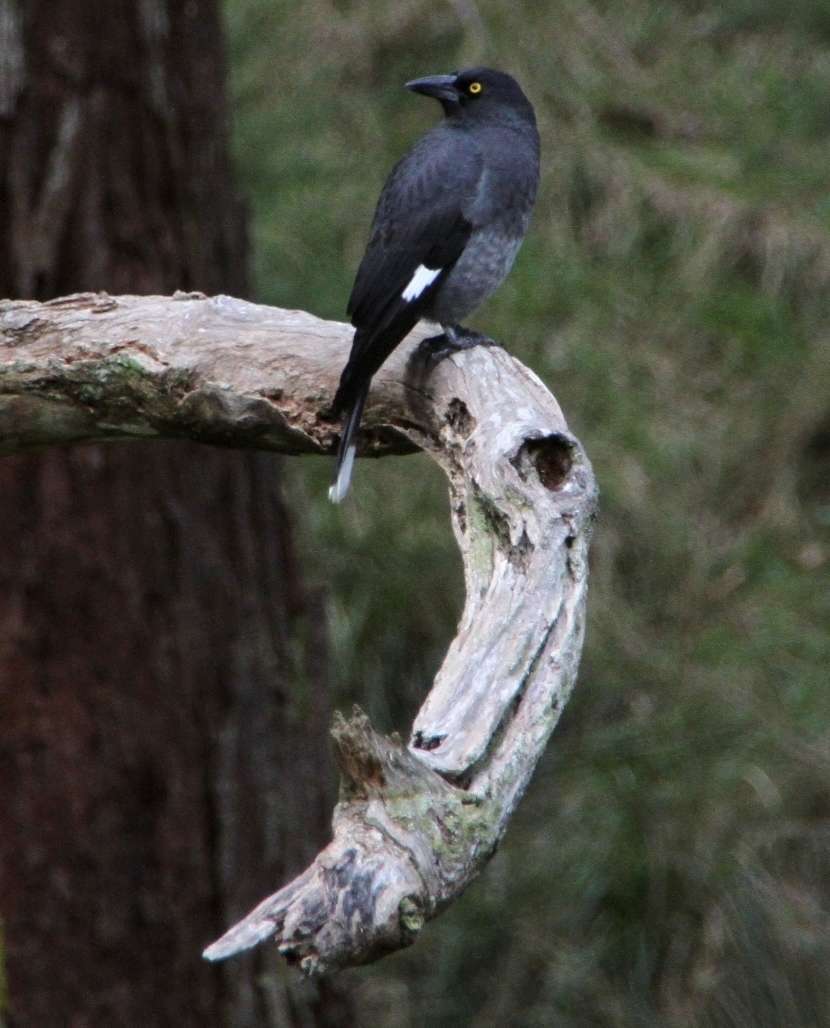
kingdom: Animalia
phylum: Chordata
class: Aves
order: Passeriformes
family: Cracticidae
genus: Strepera
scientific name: Strepera graculina
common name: Pied currawong
